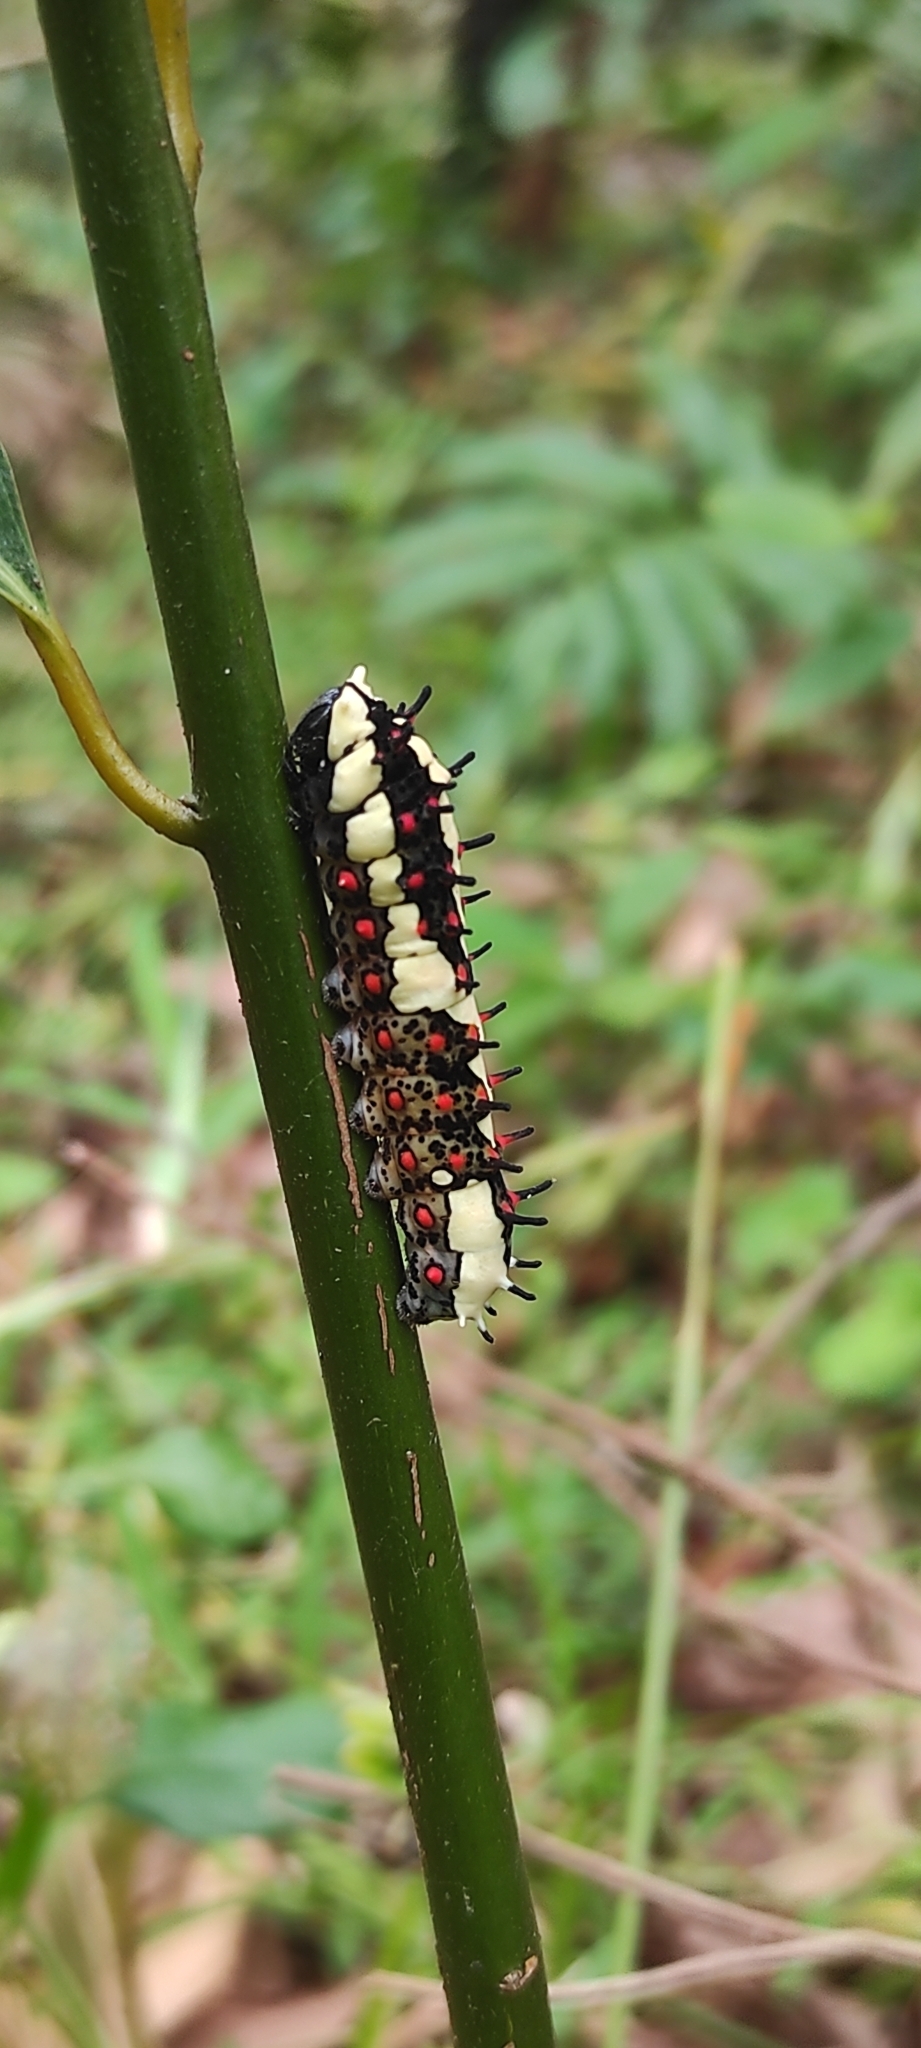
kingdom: Animalia
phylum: Arthropoda
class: Insecta
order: Lepidoptera
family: Papilionidae
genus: Chilasa
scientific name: Chilasa clytia
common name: Common mime
